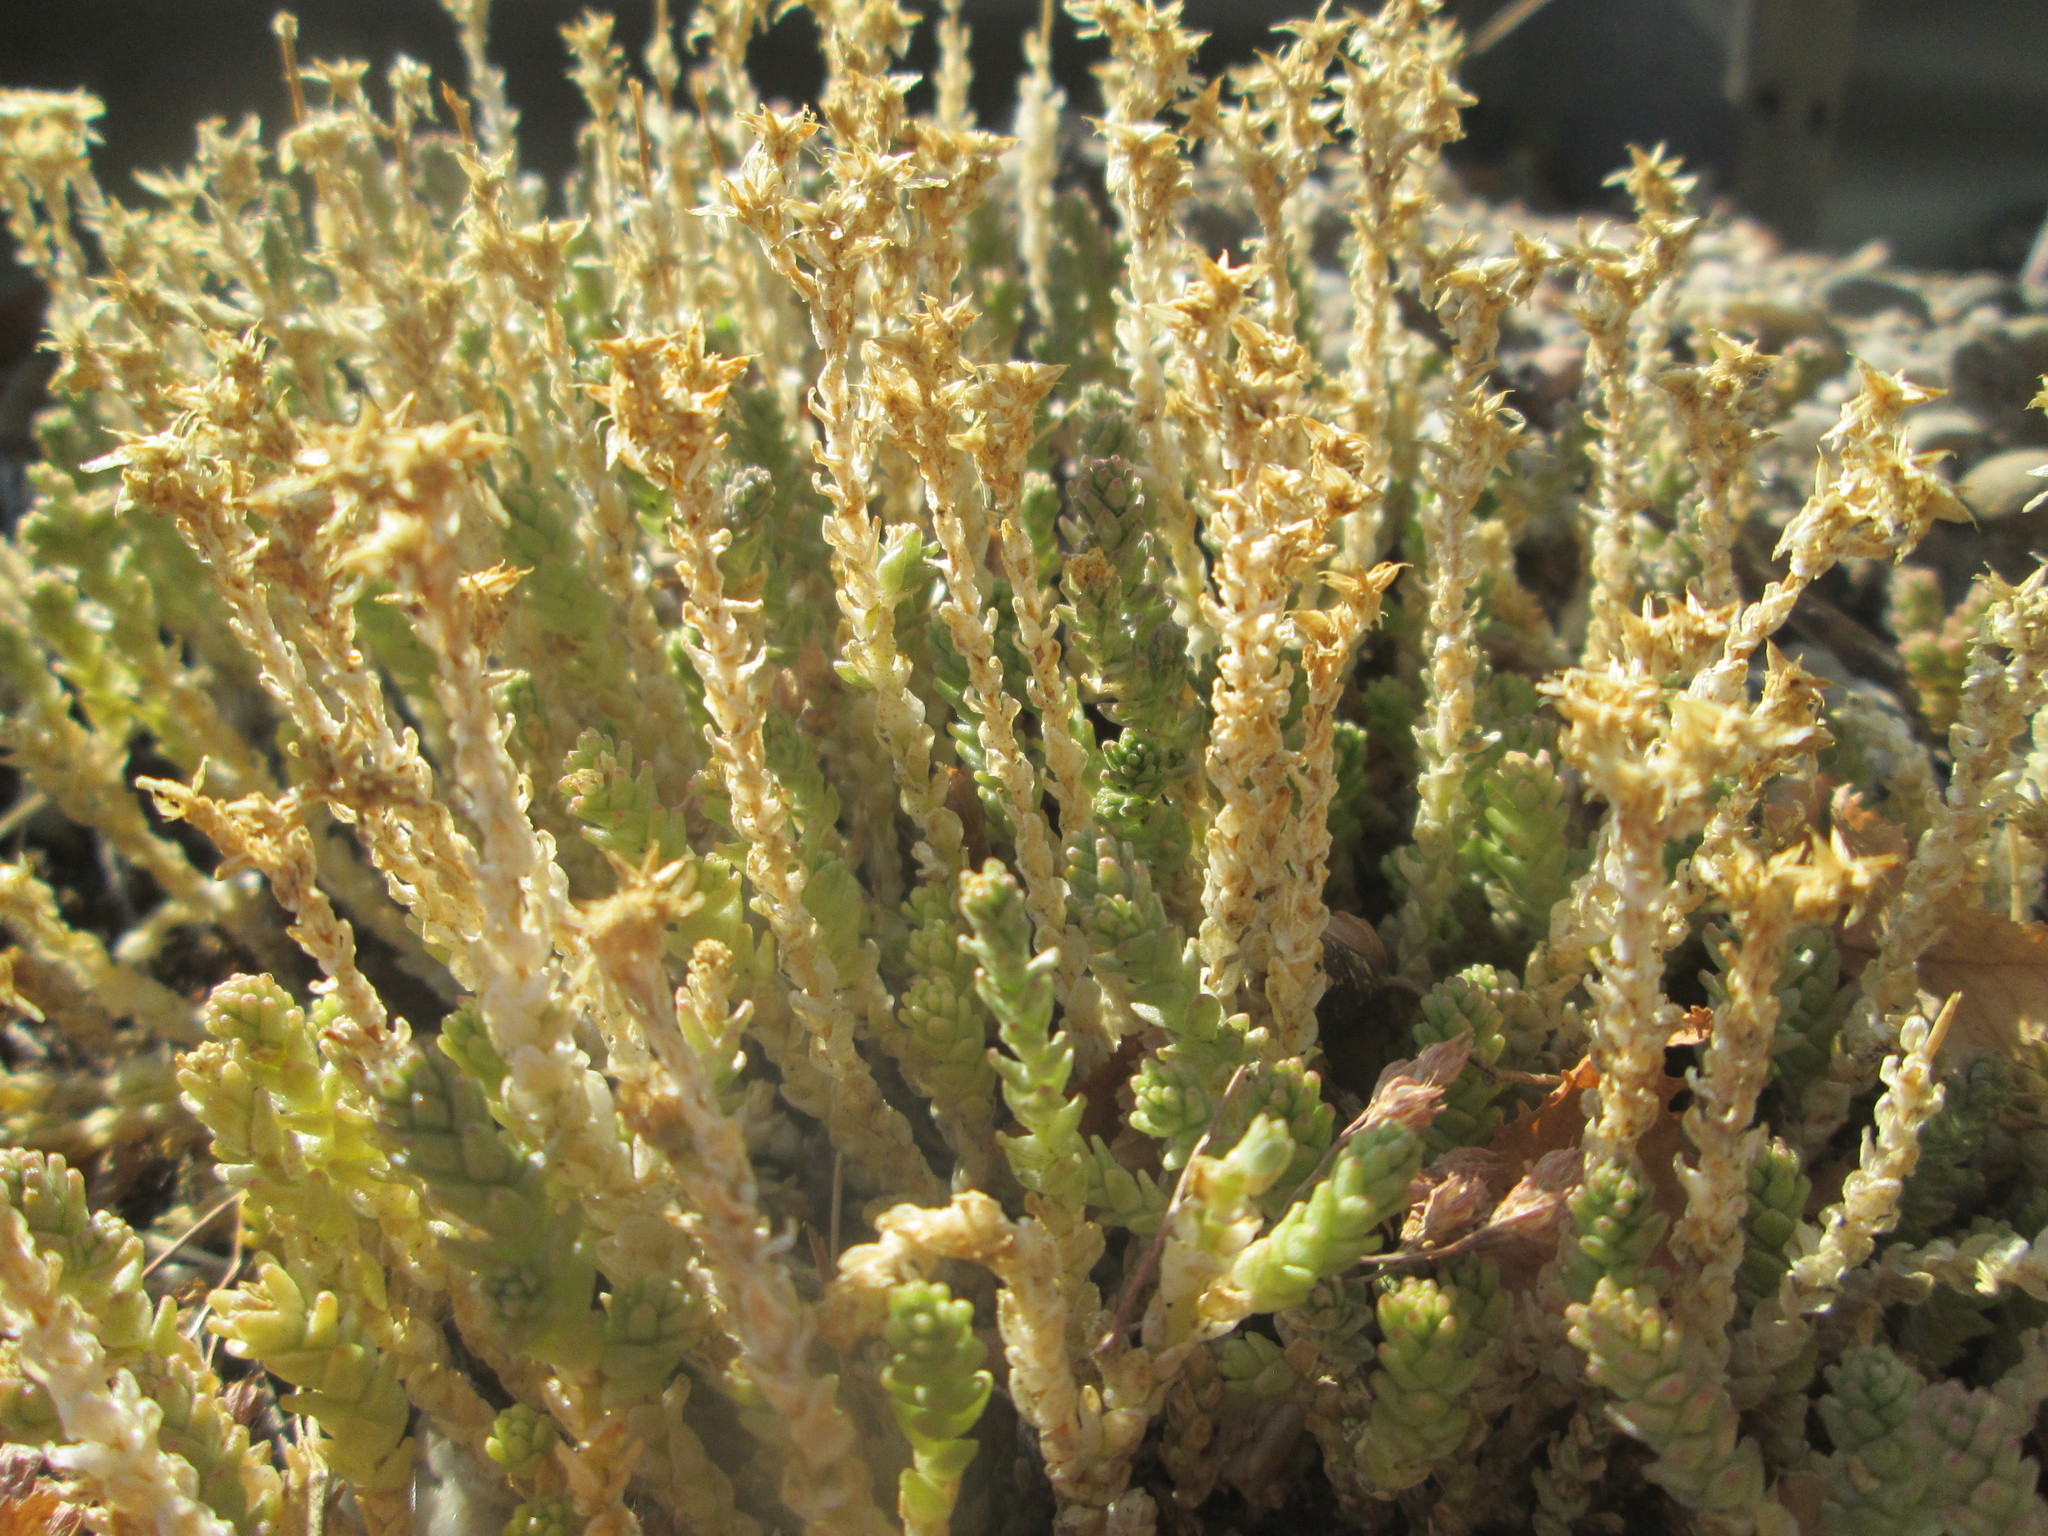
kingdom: Plantae
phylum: Tracheophyta
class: Magnoliopsida
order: Saxifragales
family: Crassulaceae
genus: Sedum
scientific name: Sedum acre
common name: Biting stonecrop
